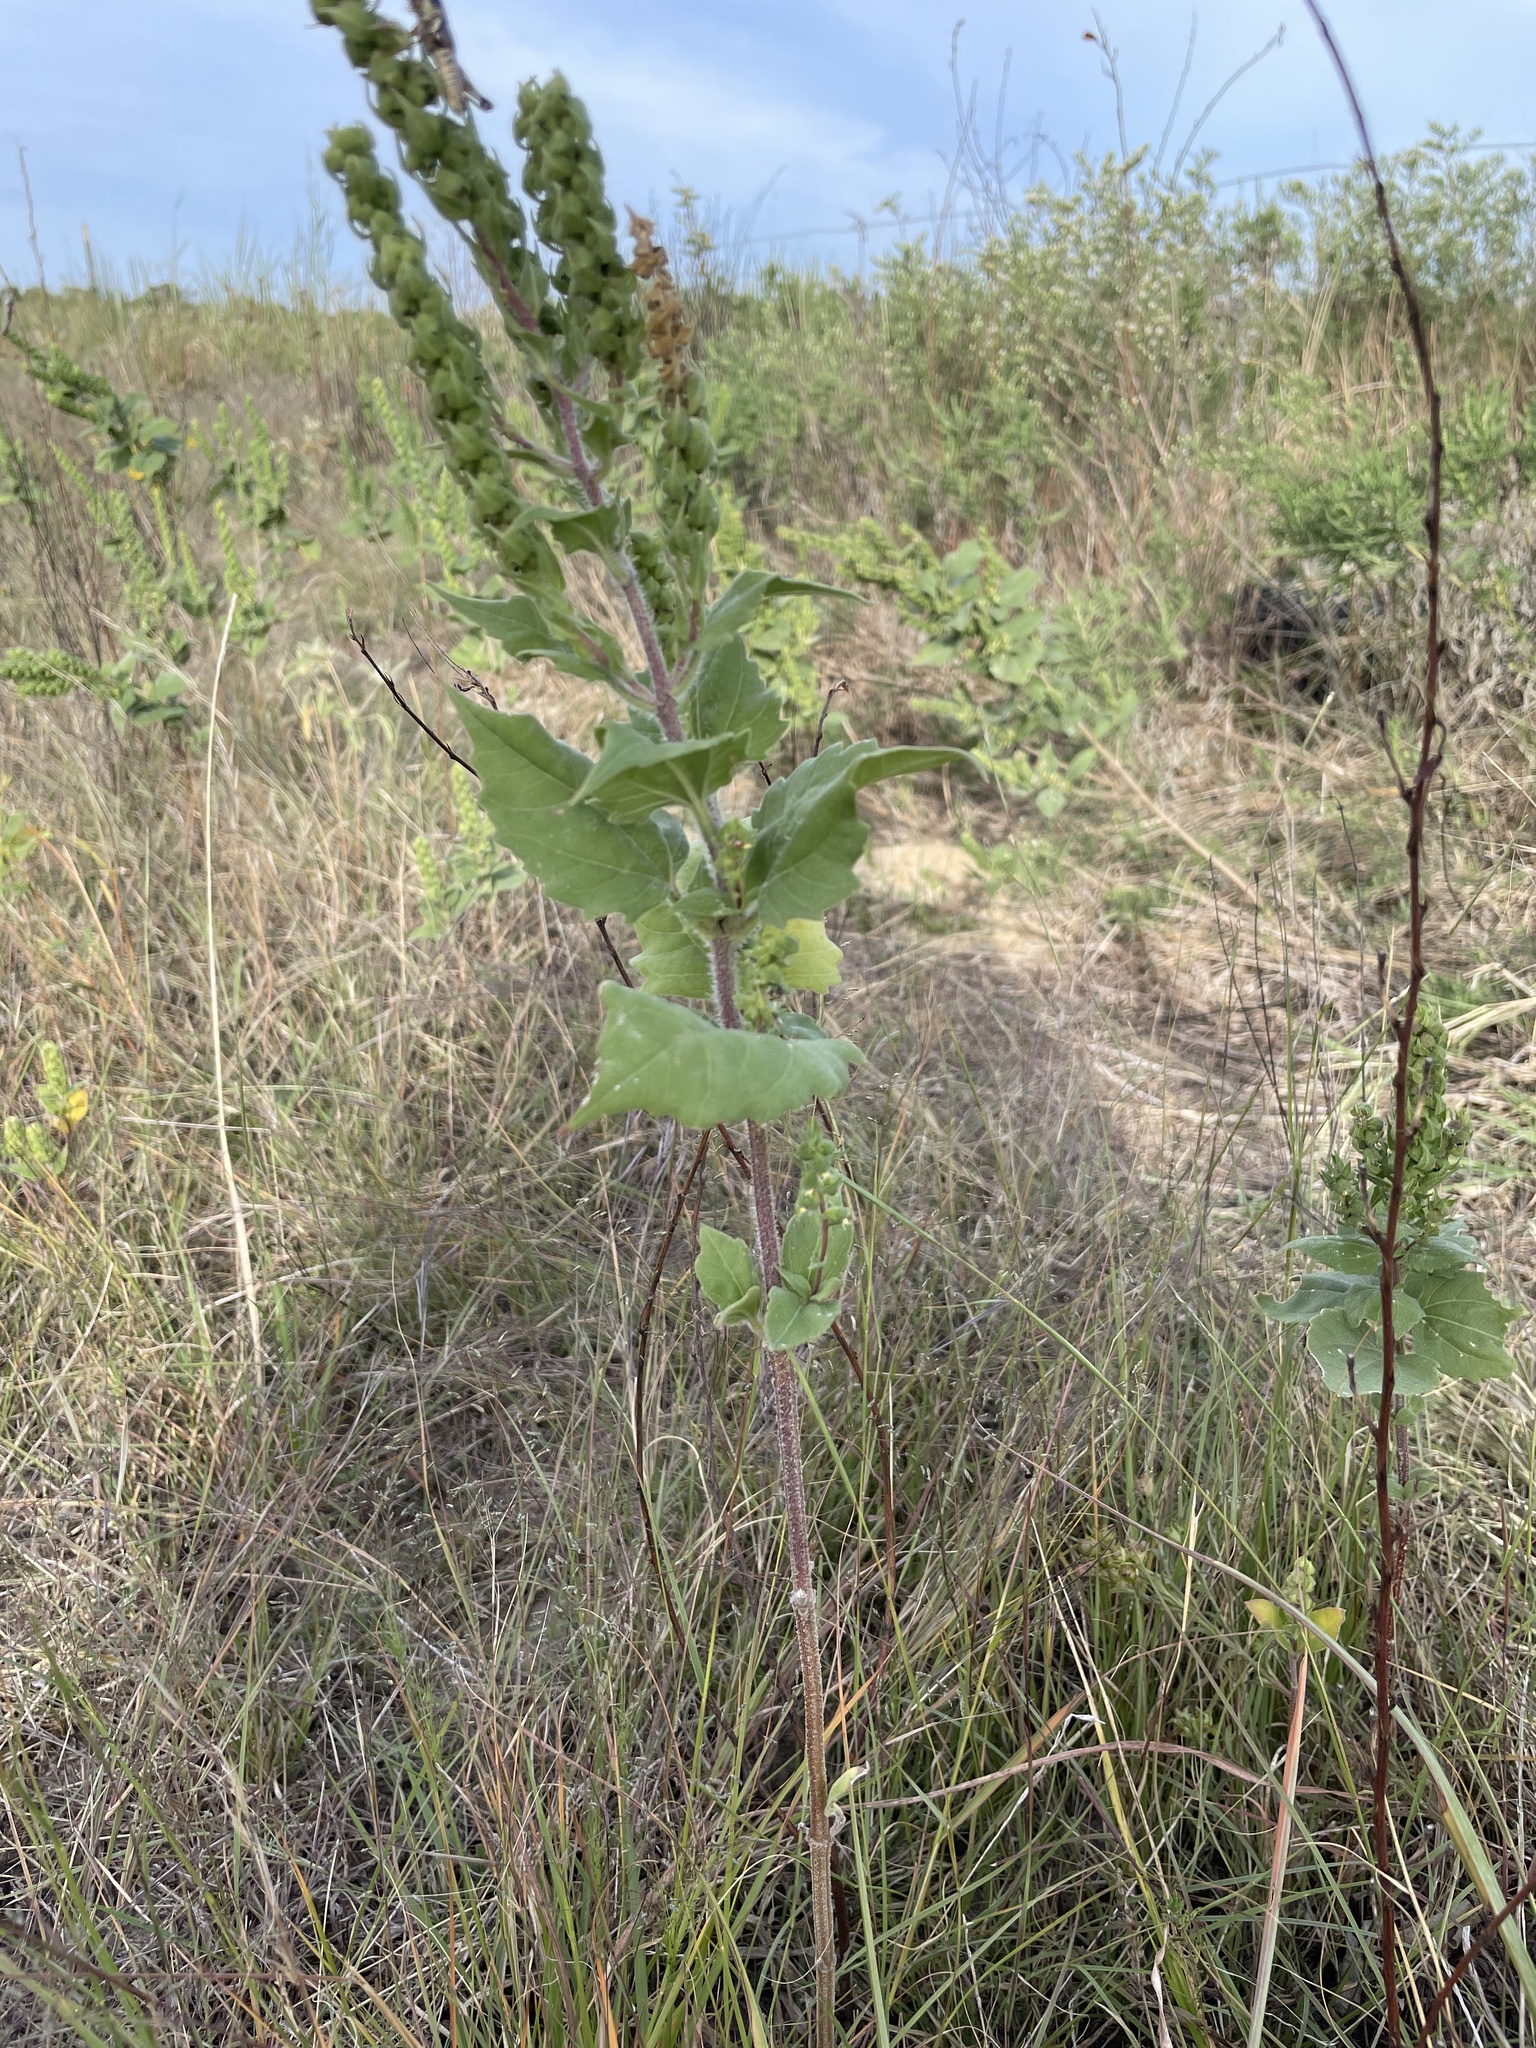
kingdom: Plantae
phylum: Tracheophyta
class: Magnoliopsida
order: Asterales
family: Asteraceae
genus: Iva
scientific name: Iva annua
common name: Marsh-elder
